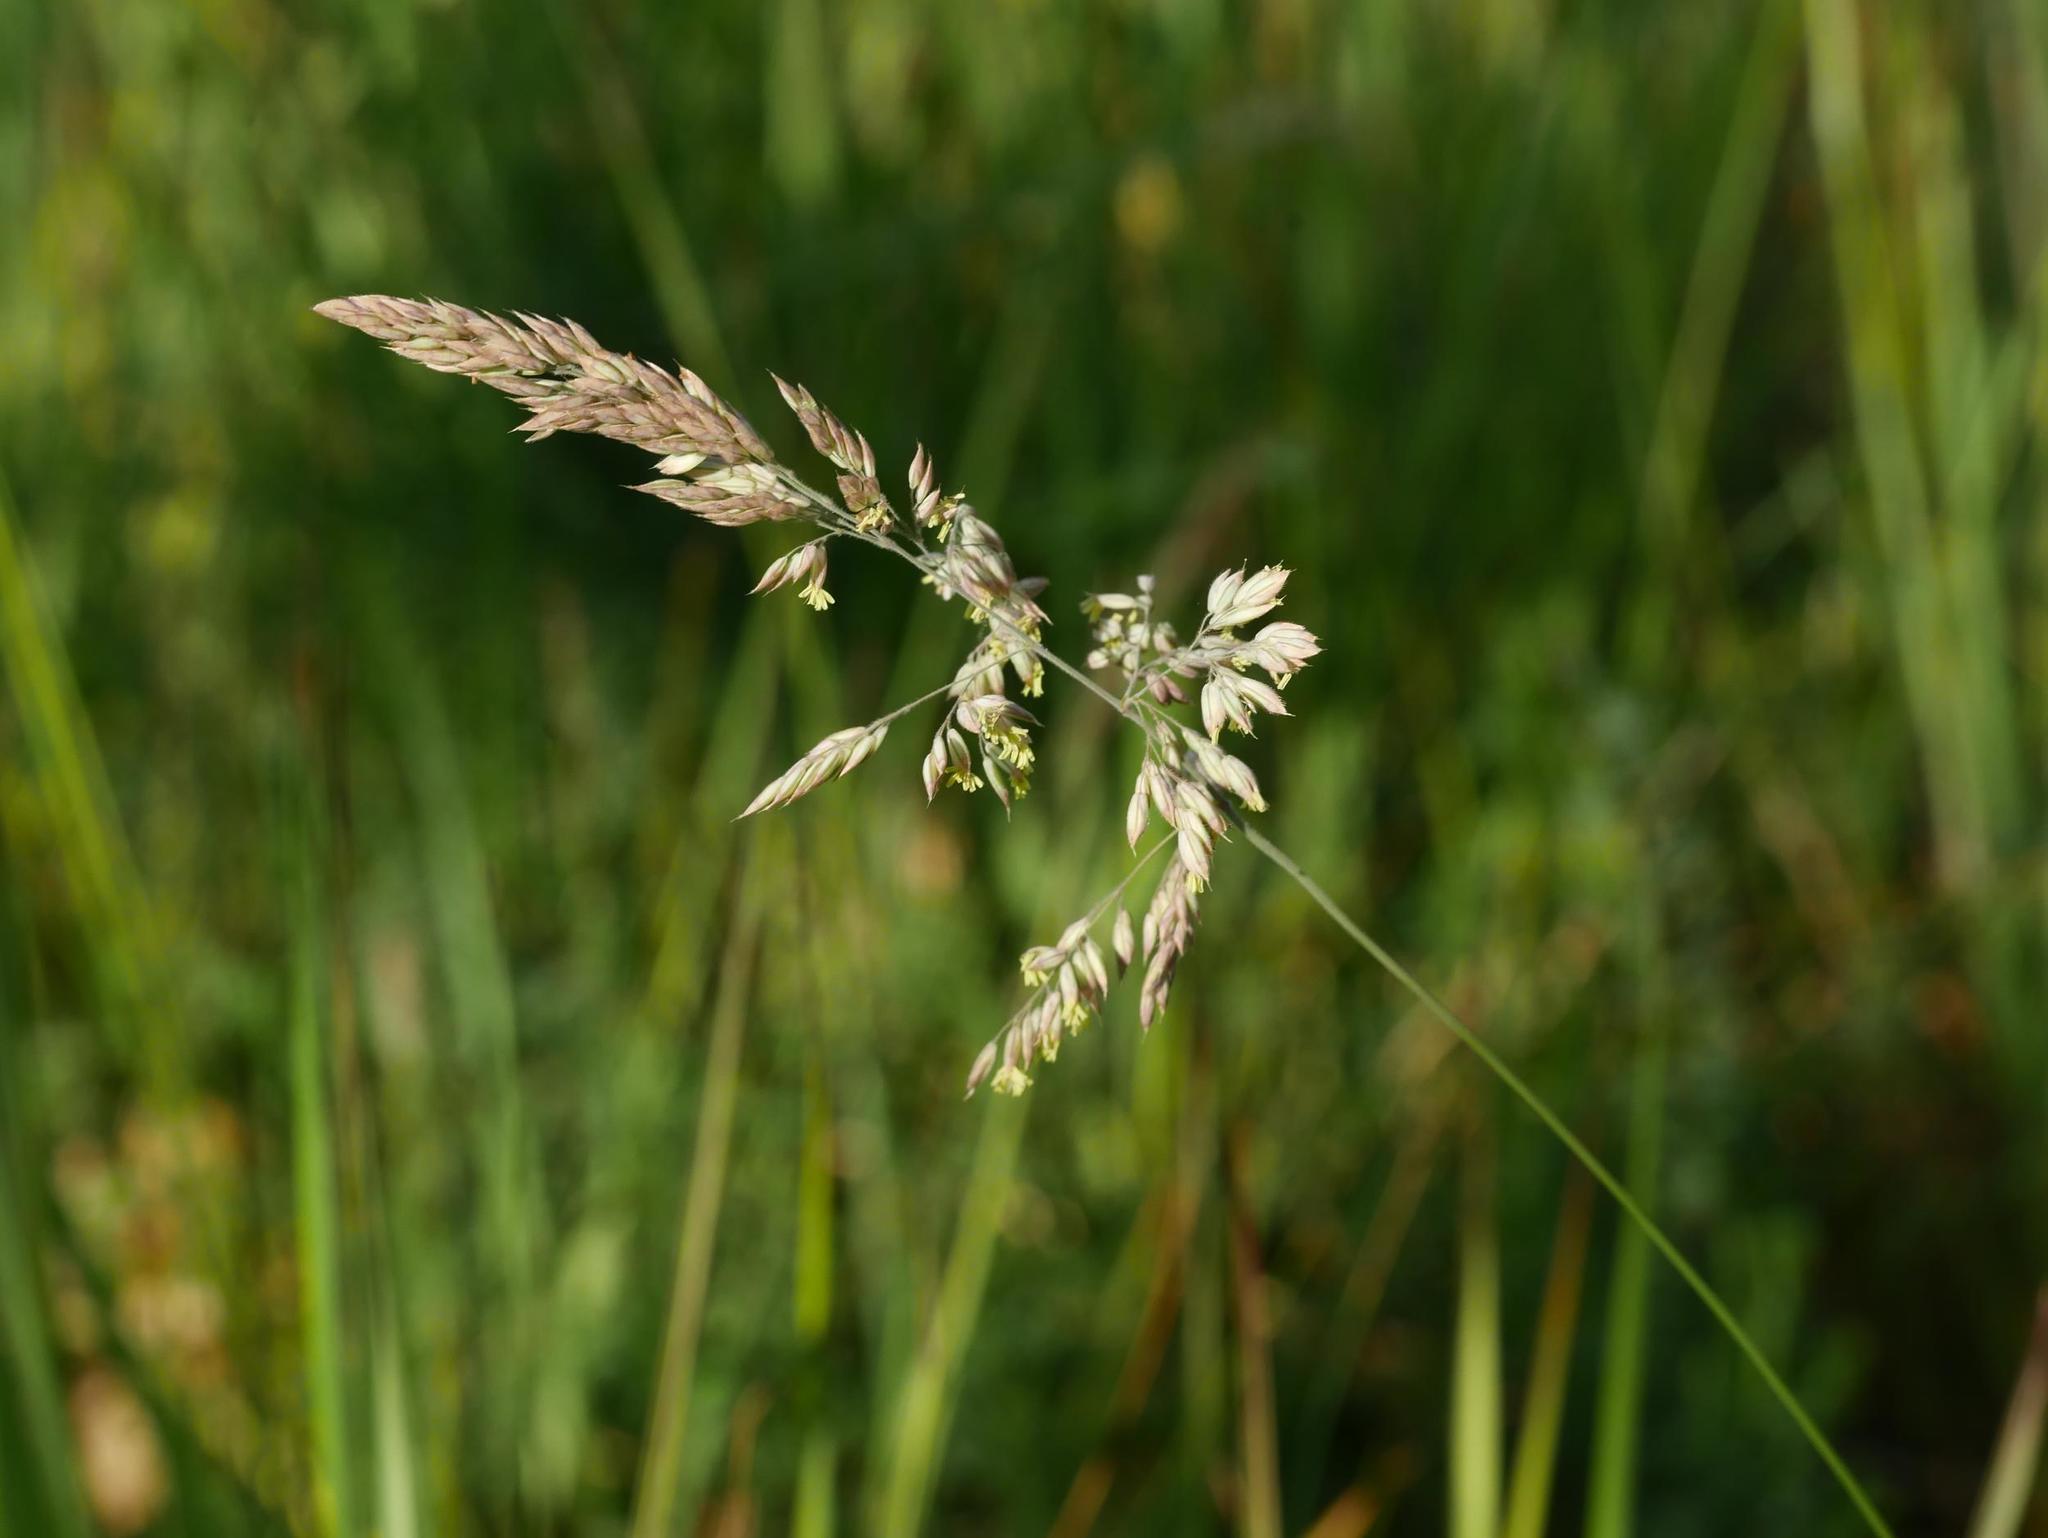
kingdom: Plantae
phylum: Tracheophyta
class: Liliopsida
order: Poales
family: Poaceae
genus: Holcus
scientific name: Holcus lanatus
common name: Yorkshire-fog
